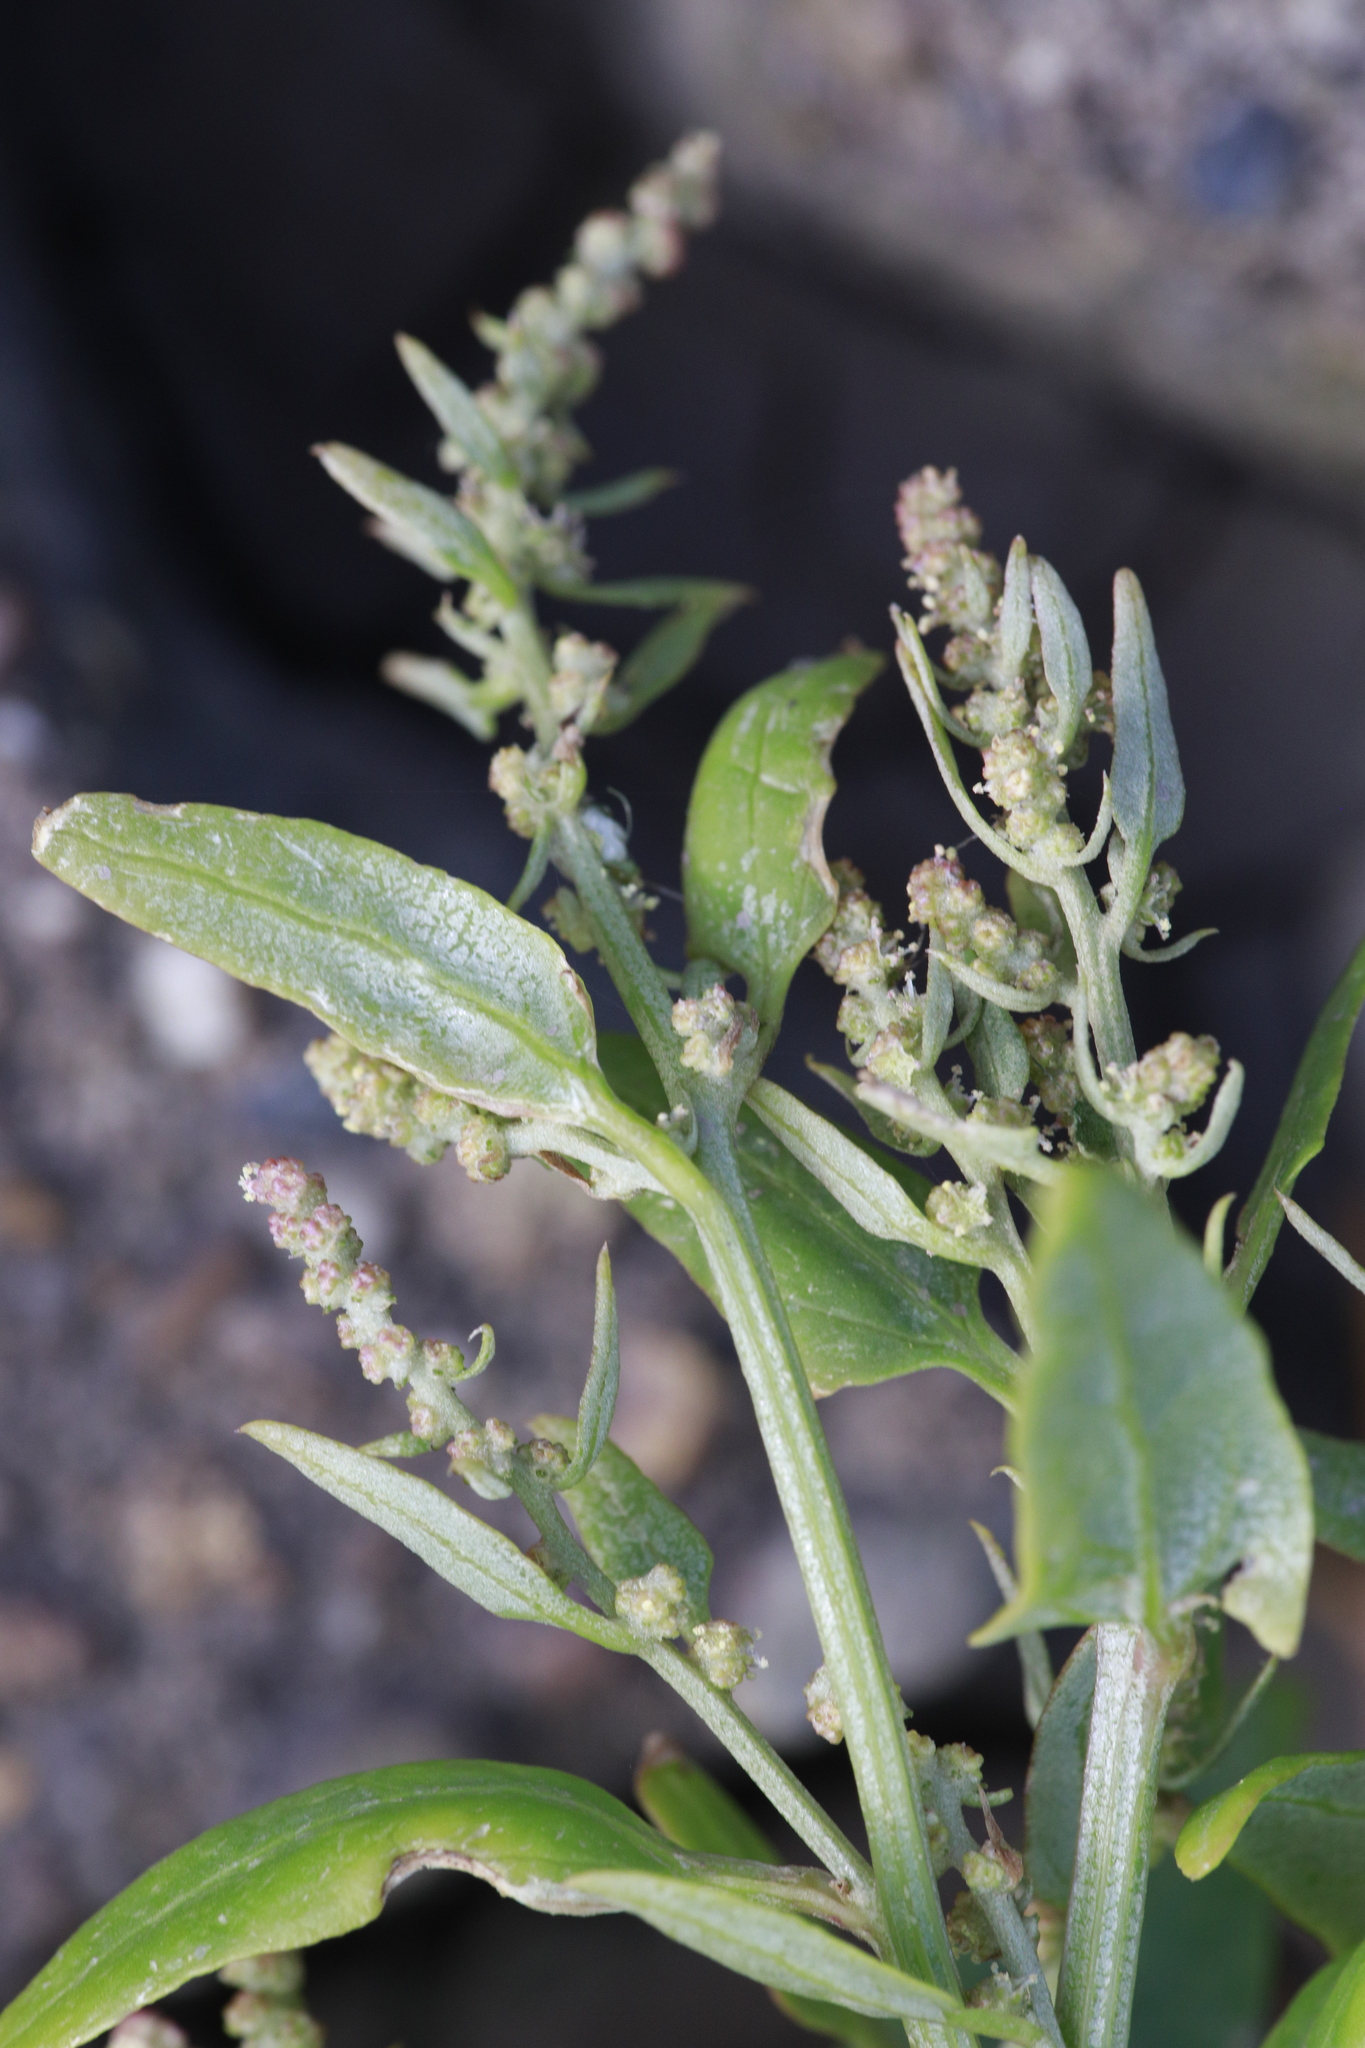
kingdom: Plantae
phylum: Tracheophyta
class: Magnoliopsida
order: Caryophyllales
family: Amaranthaceae
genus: Chenopodium
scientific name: Chenopodium album
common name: Fat-hen
